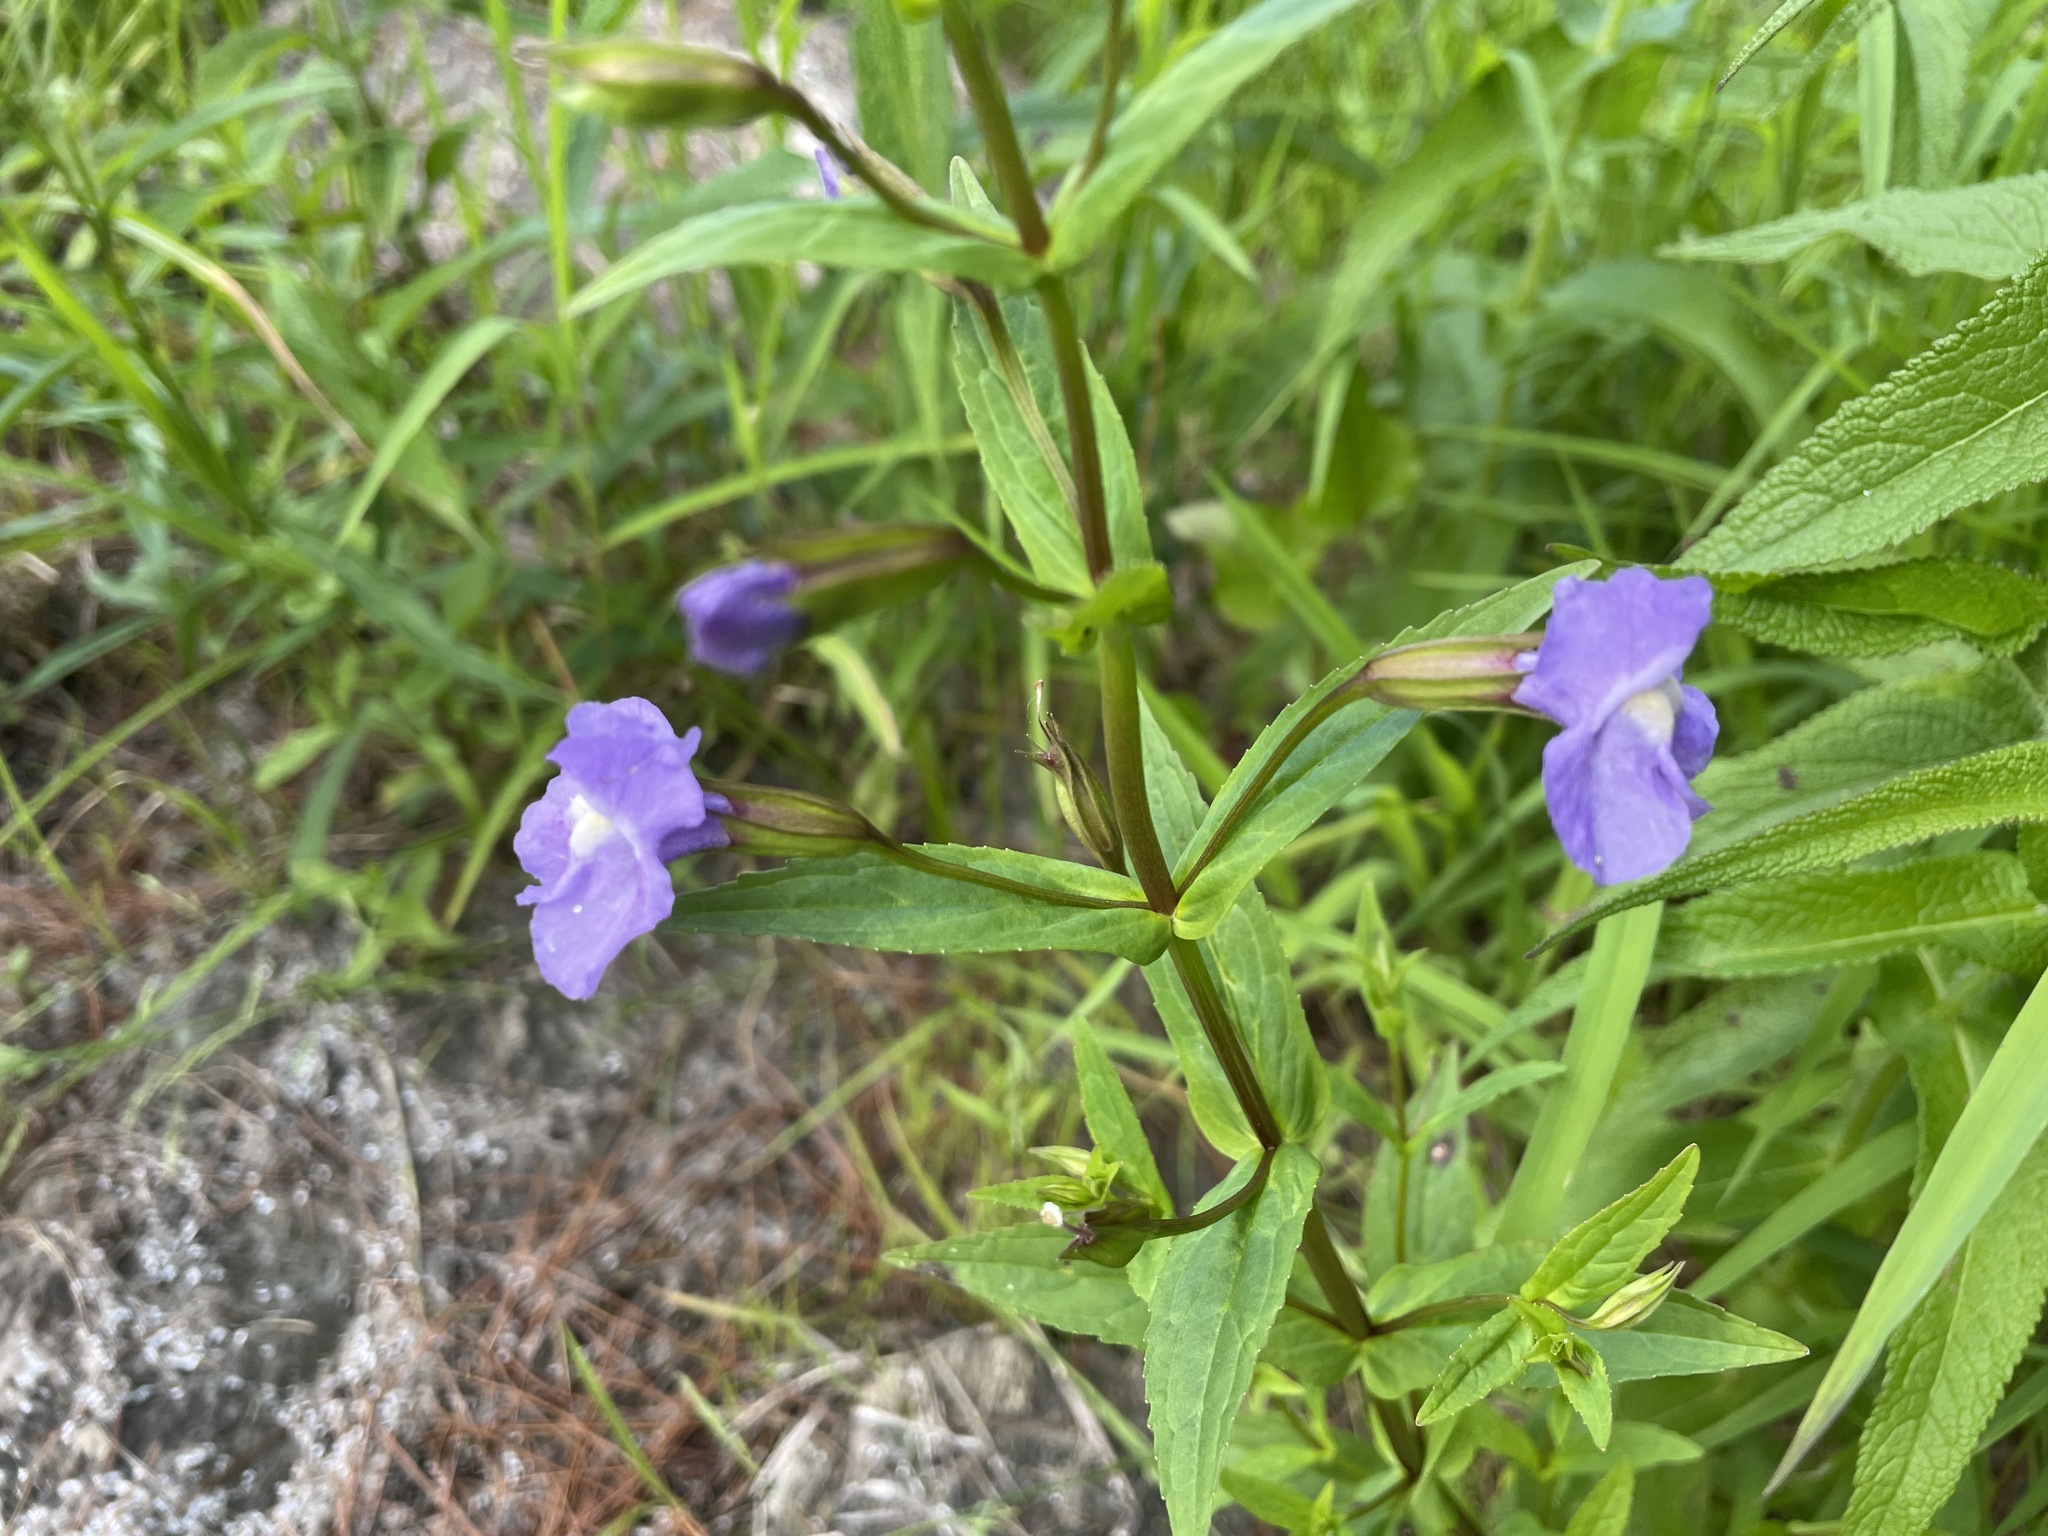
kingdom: Plantae
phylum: Tracheophyta
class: Magnoliopsida
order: Lamiales
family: Phrymaceae
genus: Mimulus
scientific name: Mimulus ringens
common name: Allegheny monkeyflower
